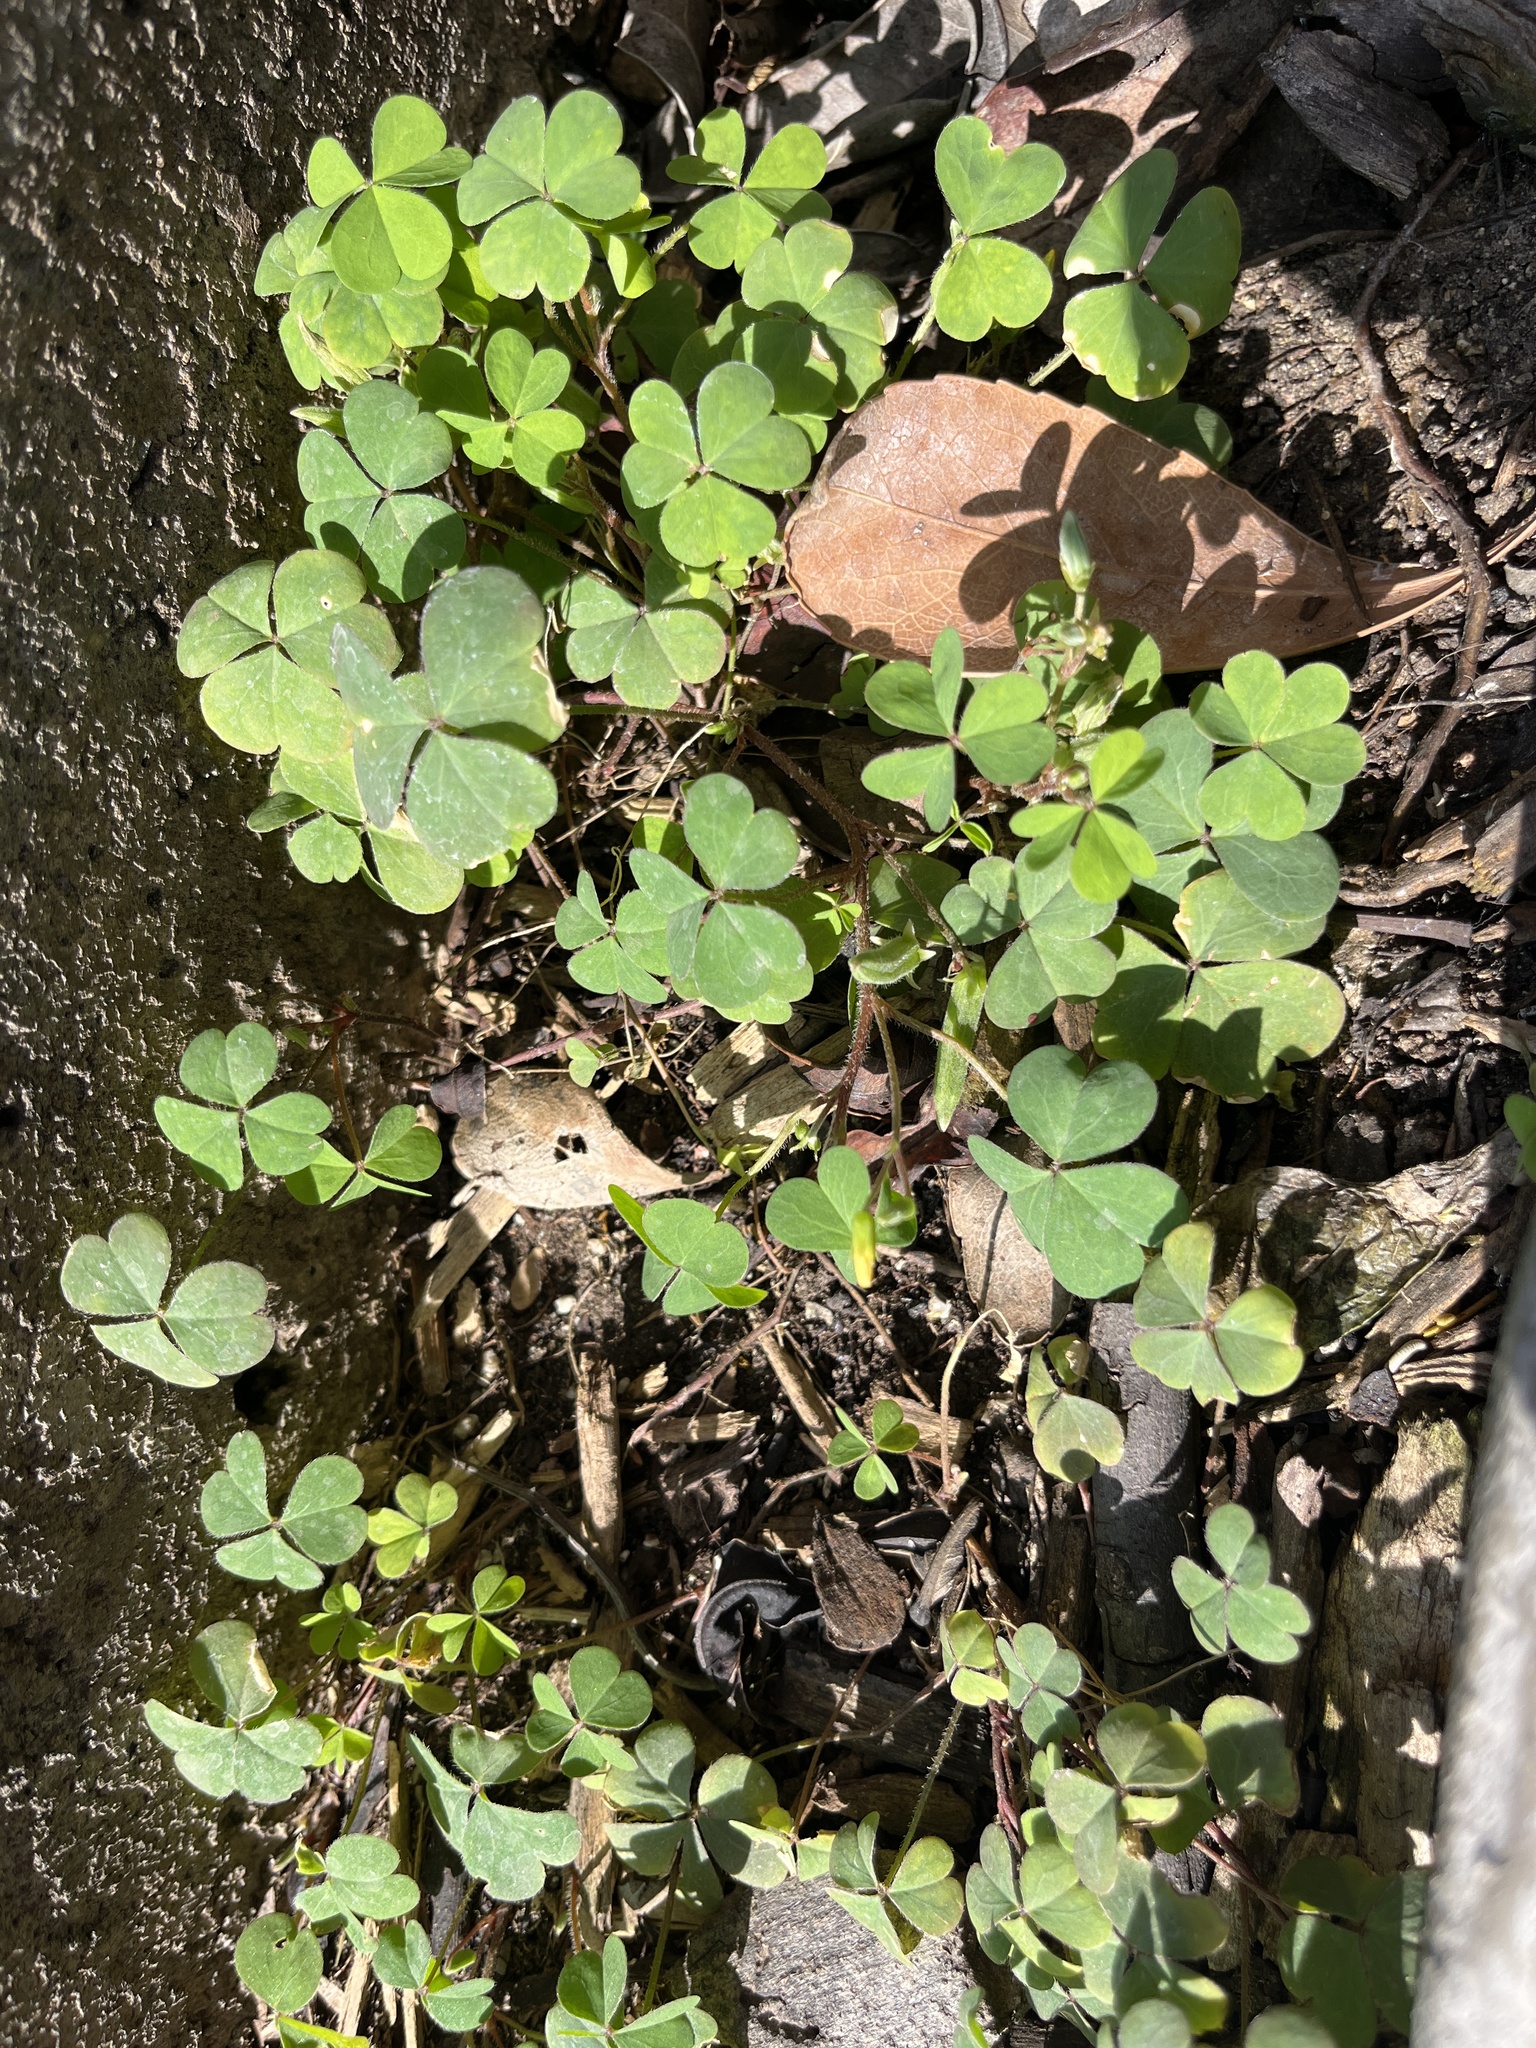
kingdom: Plantae
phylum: Tracheophyta
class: Magnoliopsida
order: Oxalidales
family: Oxalidaceae
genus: Oxalis
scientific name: Oxalis
